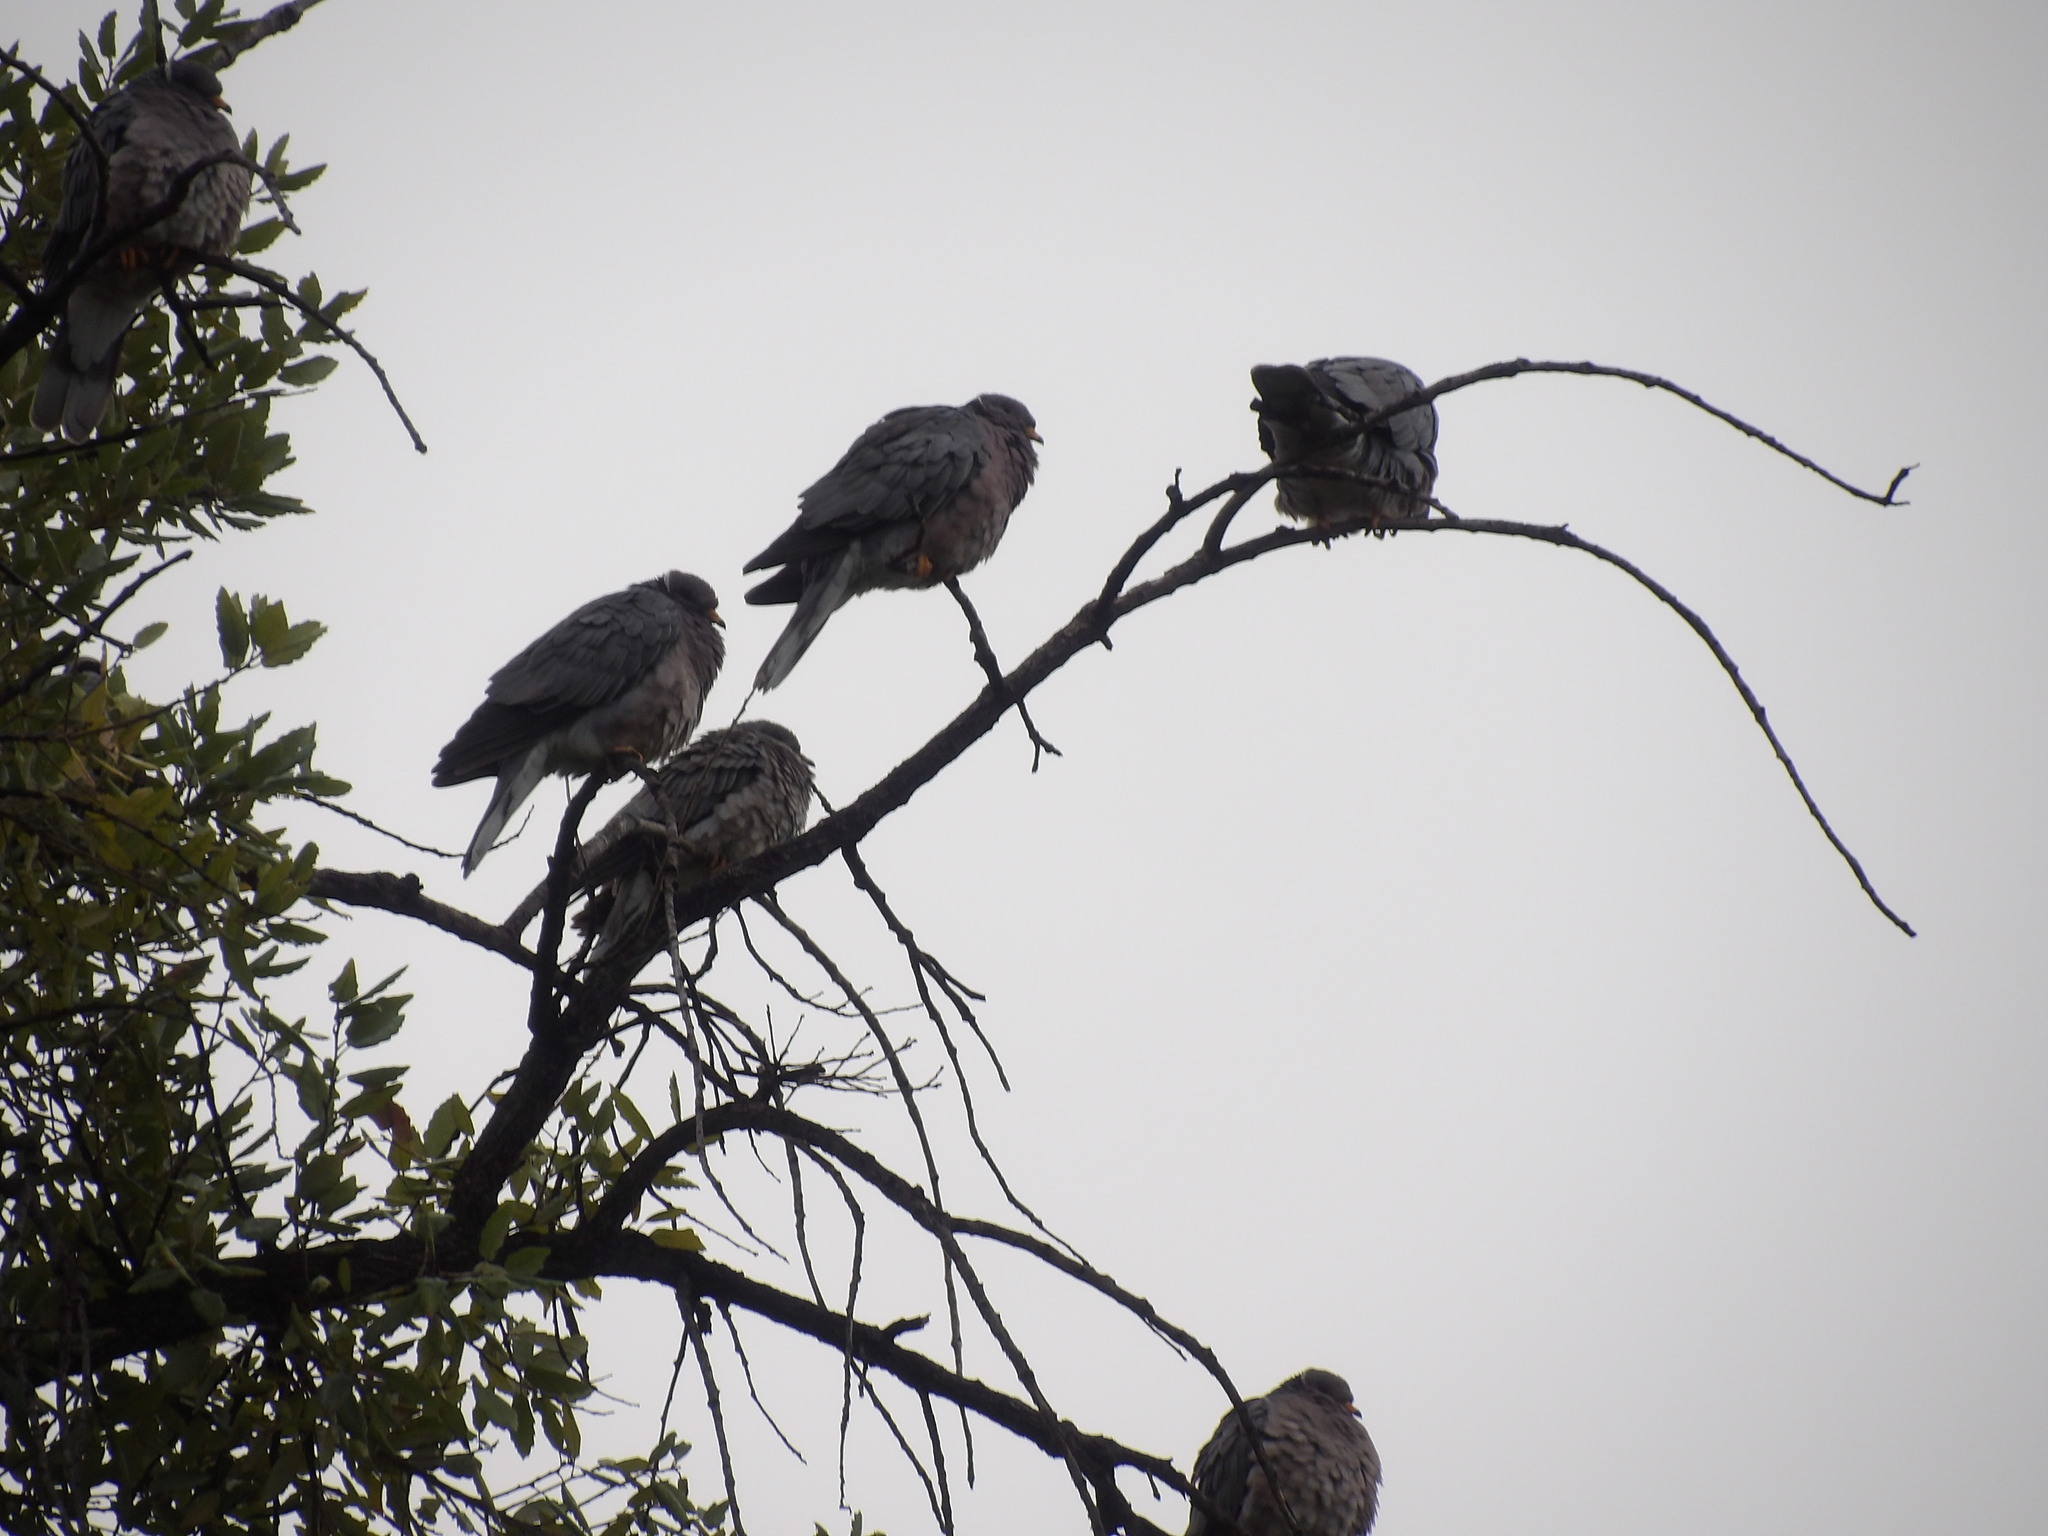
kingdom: Animalia
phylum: Chordata
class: Aves
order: Columbiformes
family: Columbidae
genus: Patagioenas
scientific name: Patagioenas fasciata
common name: Band-tailed pigeon
